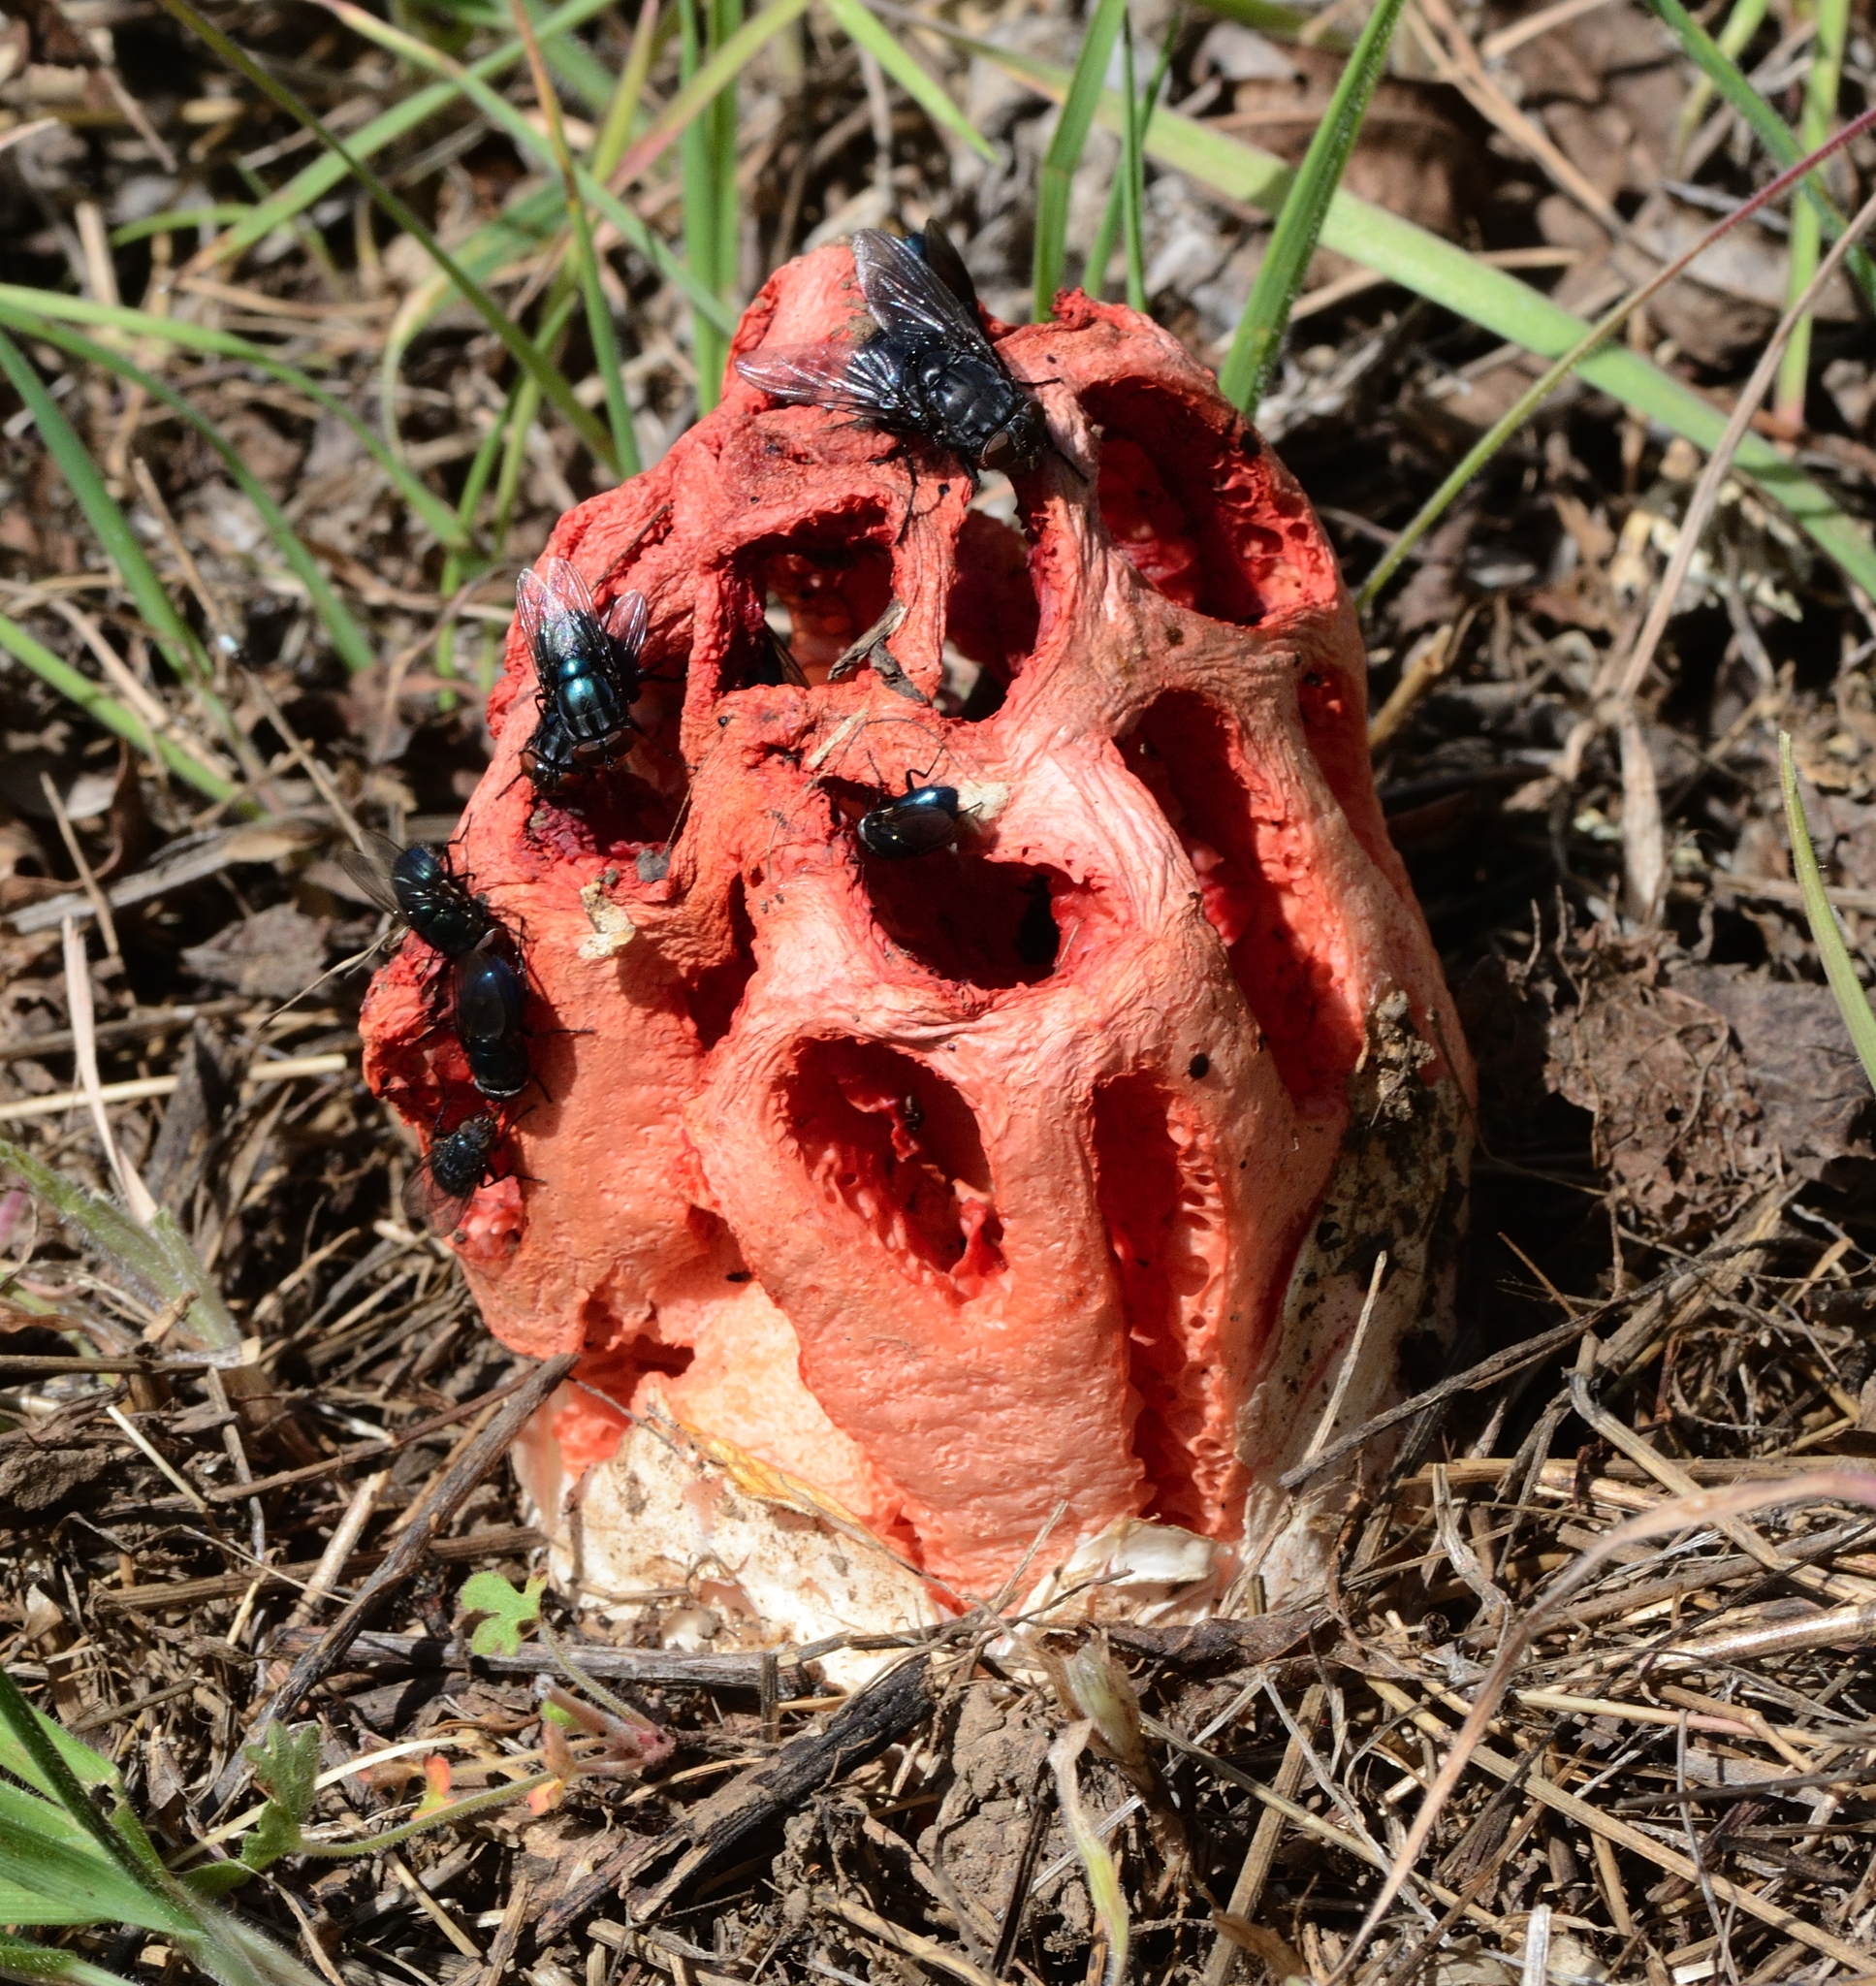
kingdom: Fungi
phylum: Basidiomycota
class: Agaricomycetes
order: Phallales
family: Phallaceae
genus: Clathrus
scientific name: Clathrus ruber
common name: Red cage
